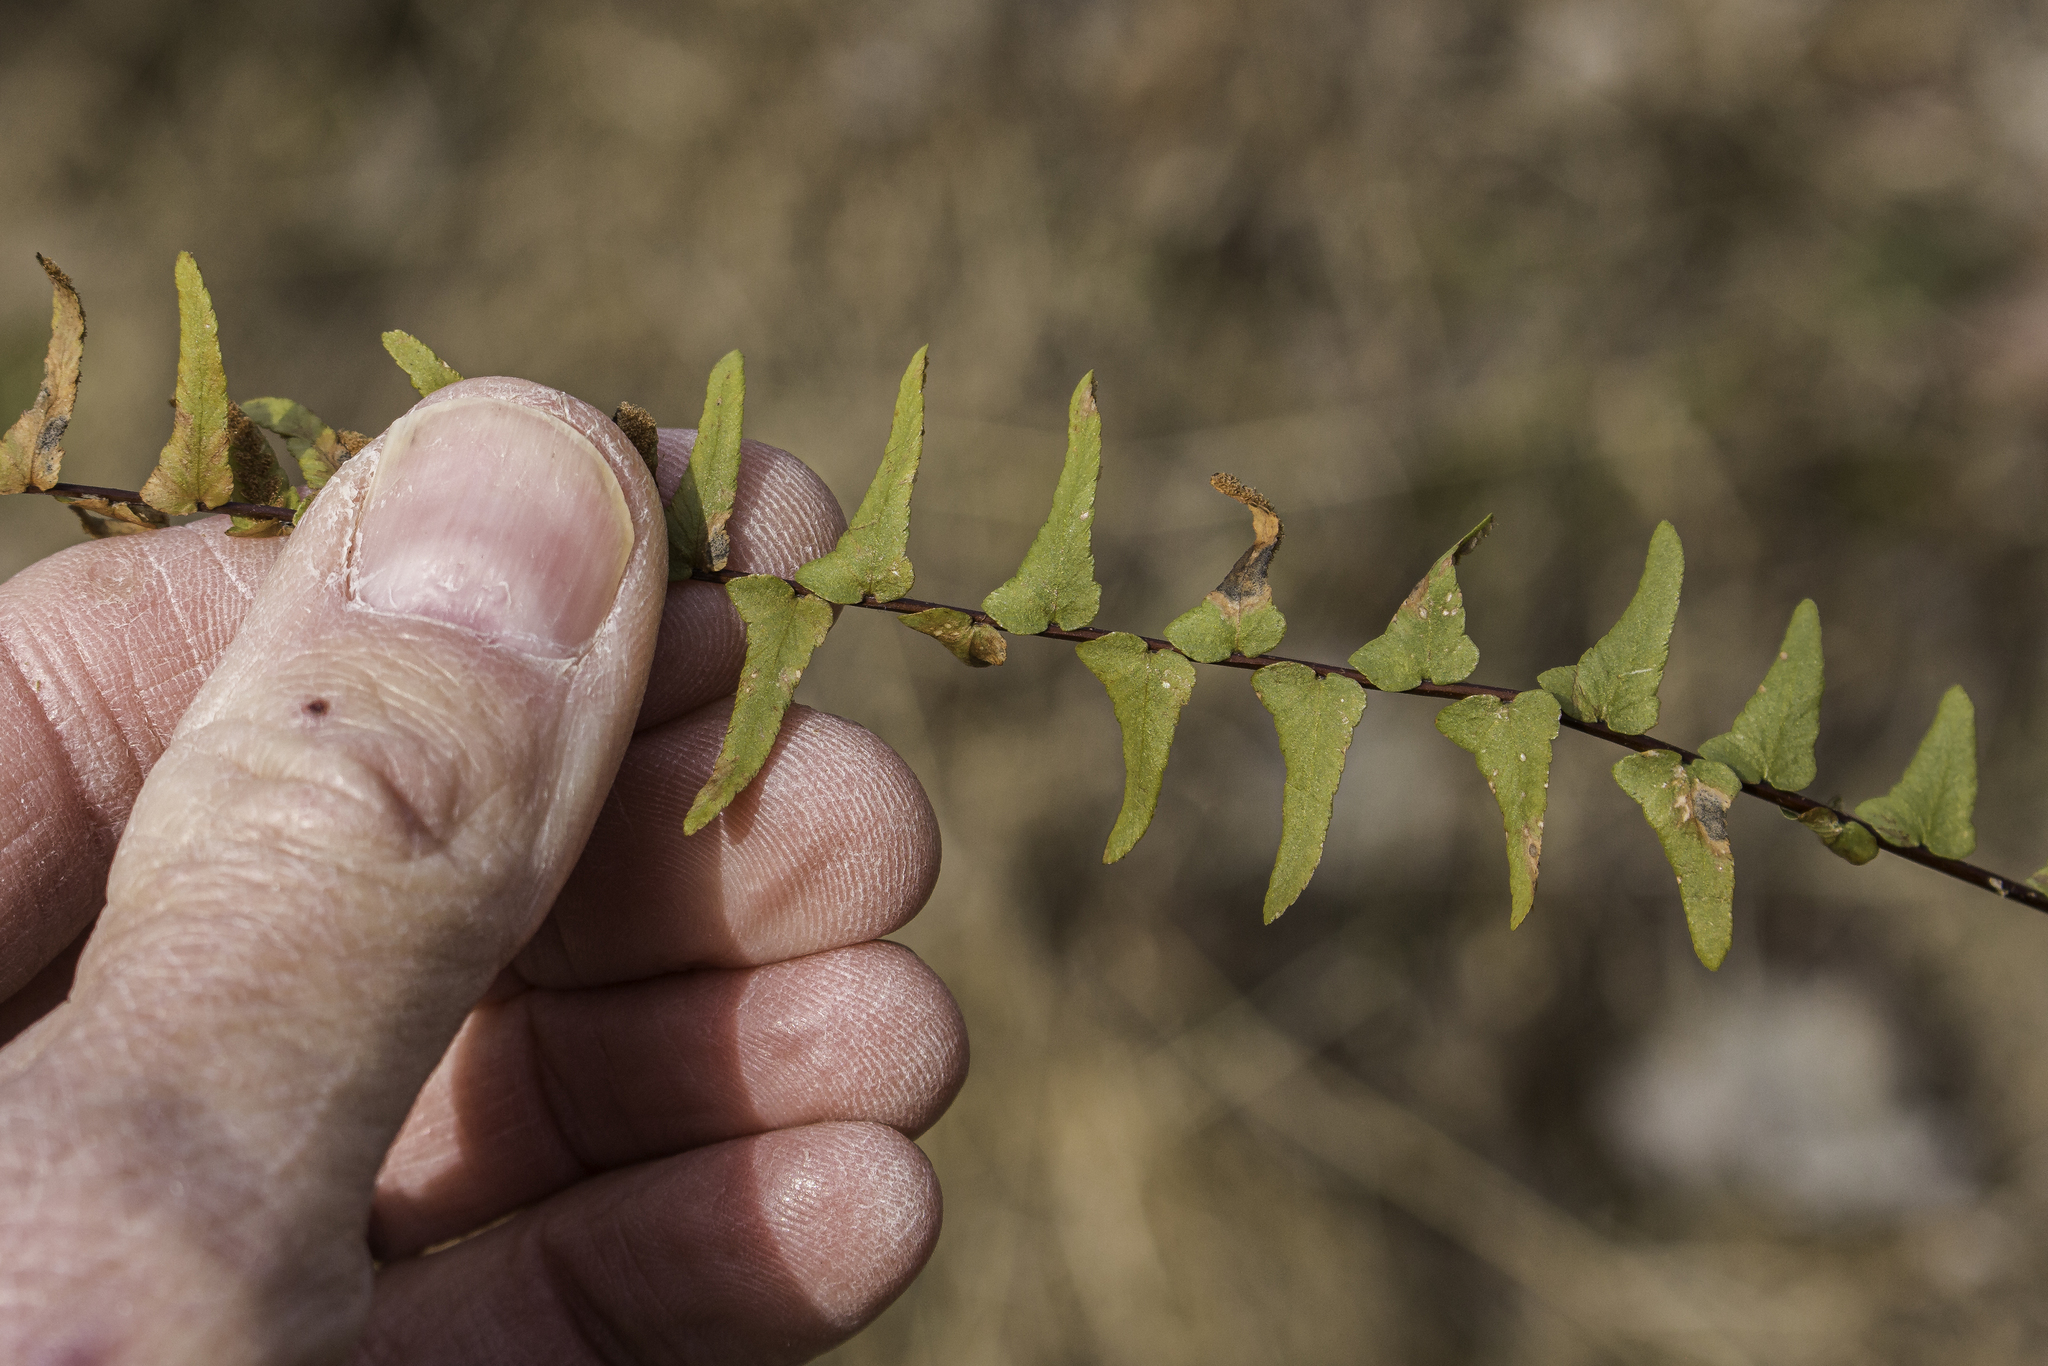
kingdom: Plantae
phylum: Tracheophyta
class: Polypodiopsida
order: Polypodiales
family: Aspleniaceae
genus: Asplenium
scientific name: Asplenium platyneuron
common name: Ebony spleenwort
